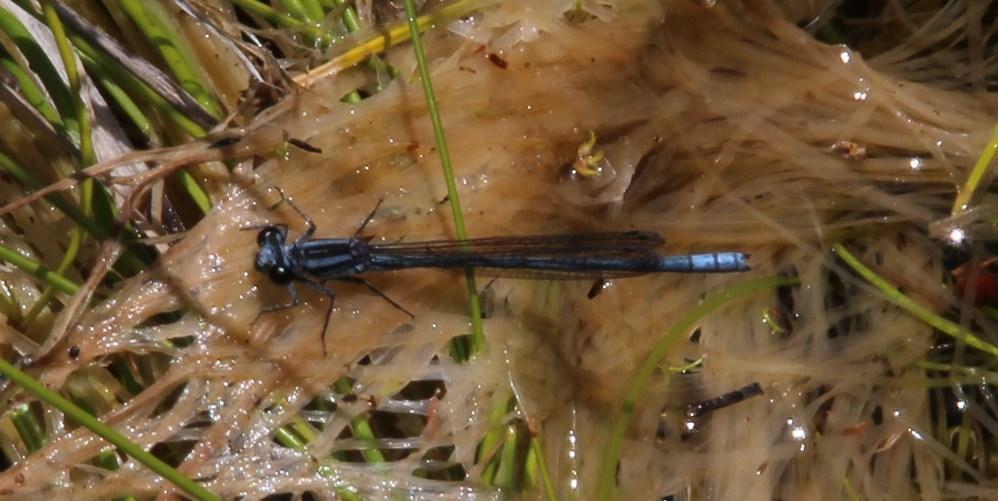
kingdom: Animalia
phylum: Arthropoda
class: Insecta
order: Odonata
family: Coenagrionidae
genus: Pseudagrion
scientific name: Pseudagrion furcigerum
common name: Palmiet sprite
